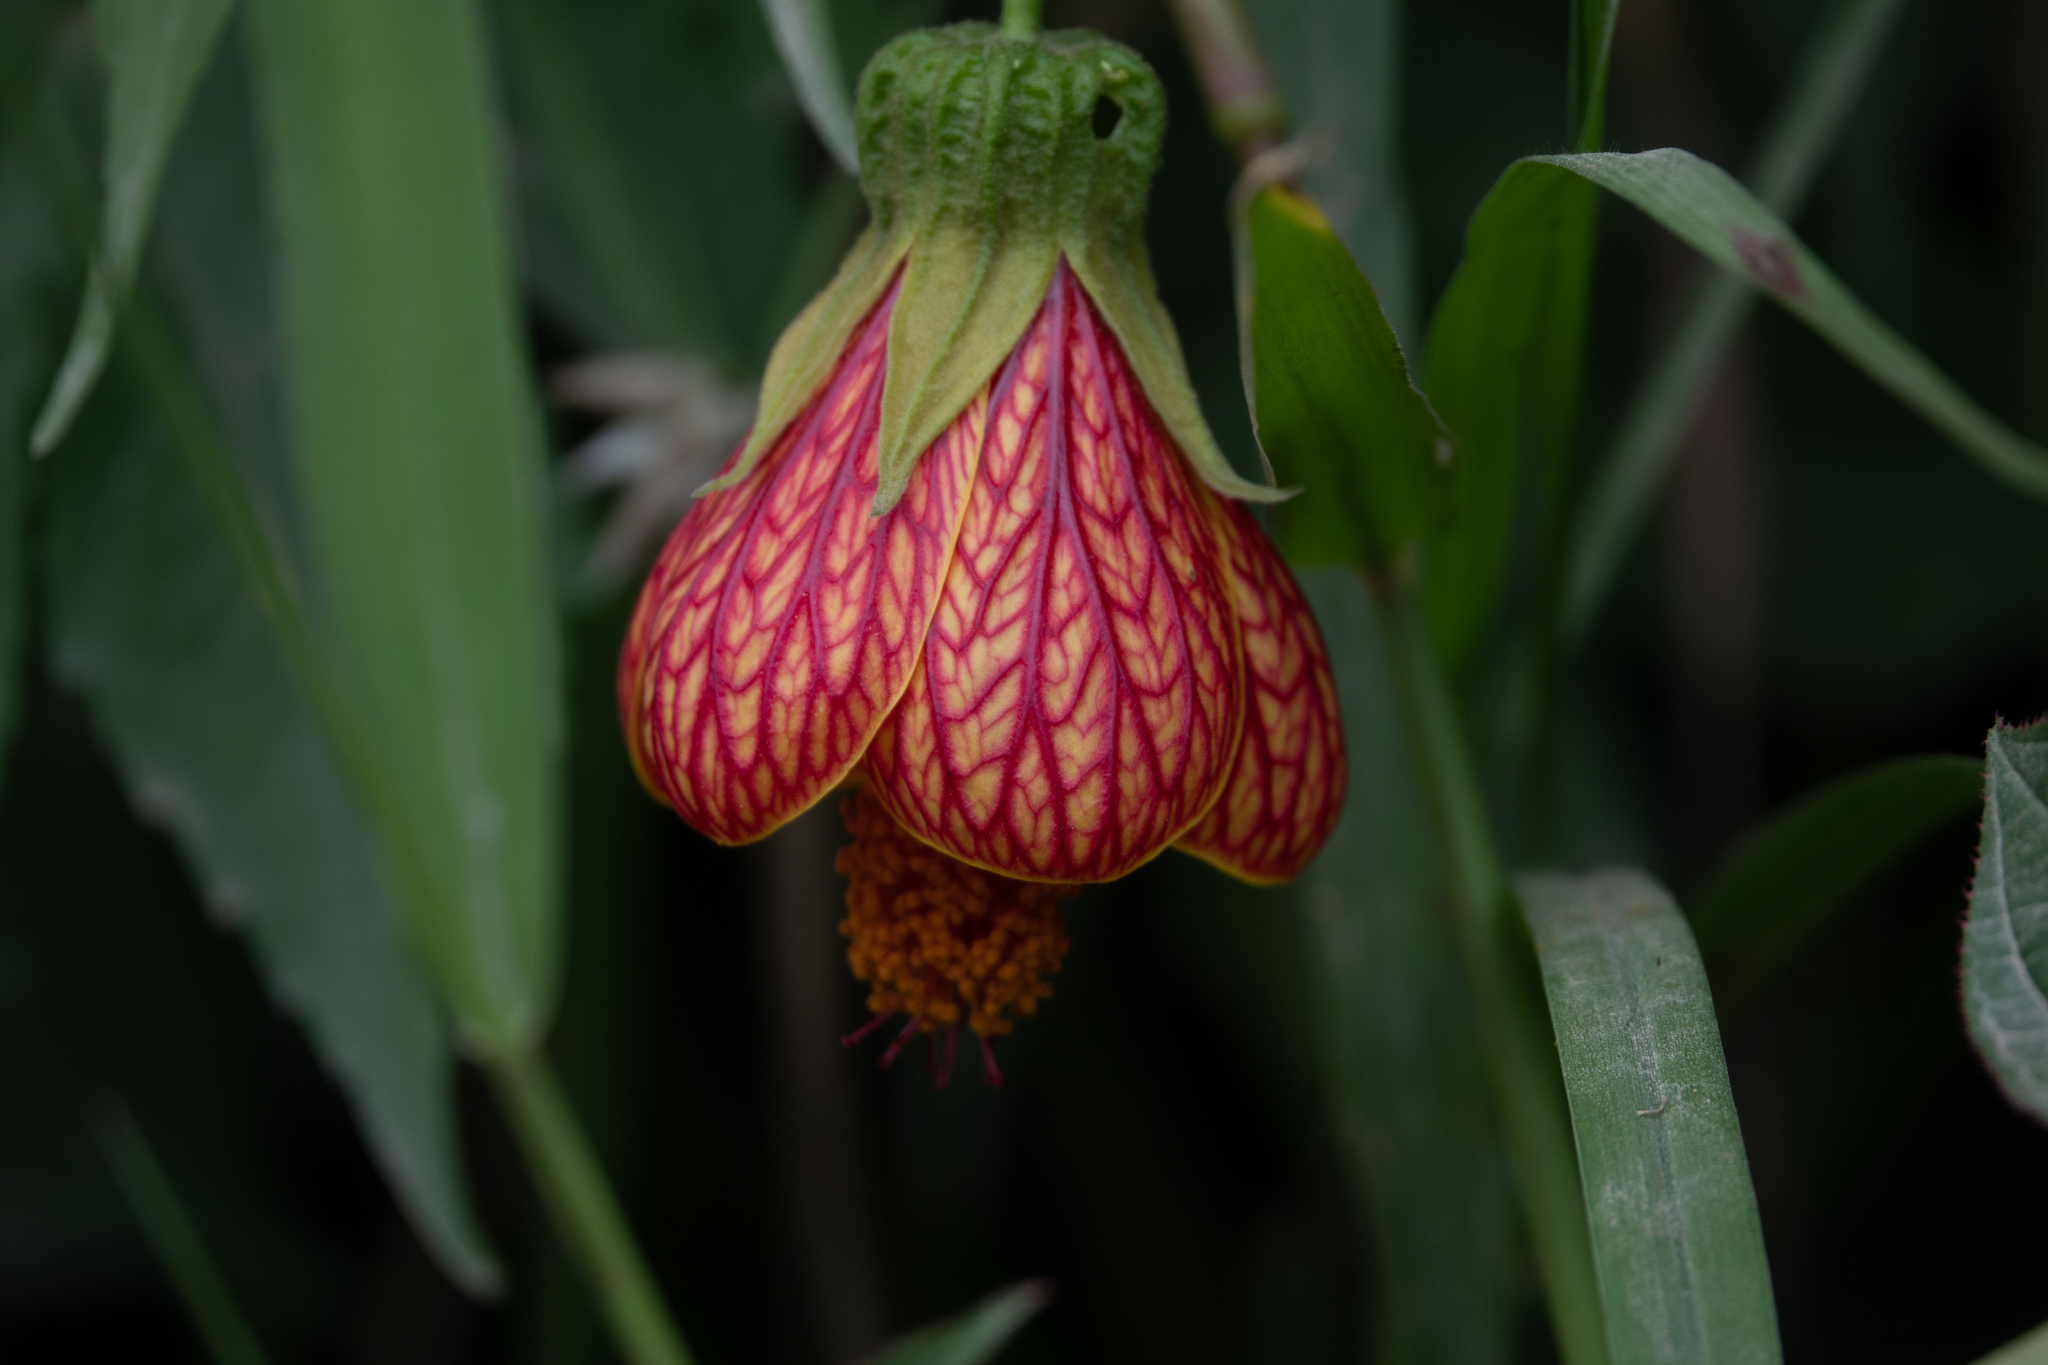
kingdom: Plantae
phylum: Tracheophyta
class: Magnoliopsida
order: Malvales
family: Malvaceae
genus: Callianthe
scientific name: Callianthe picta
